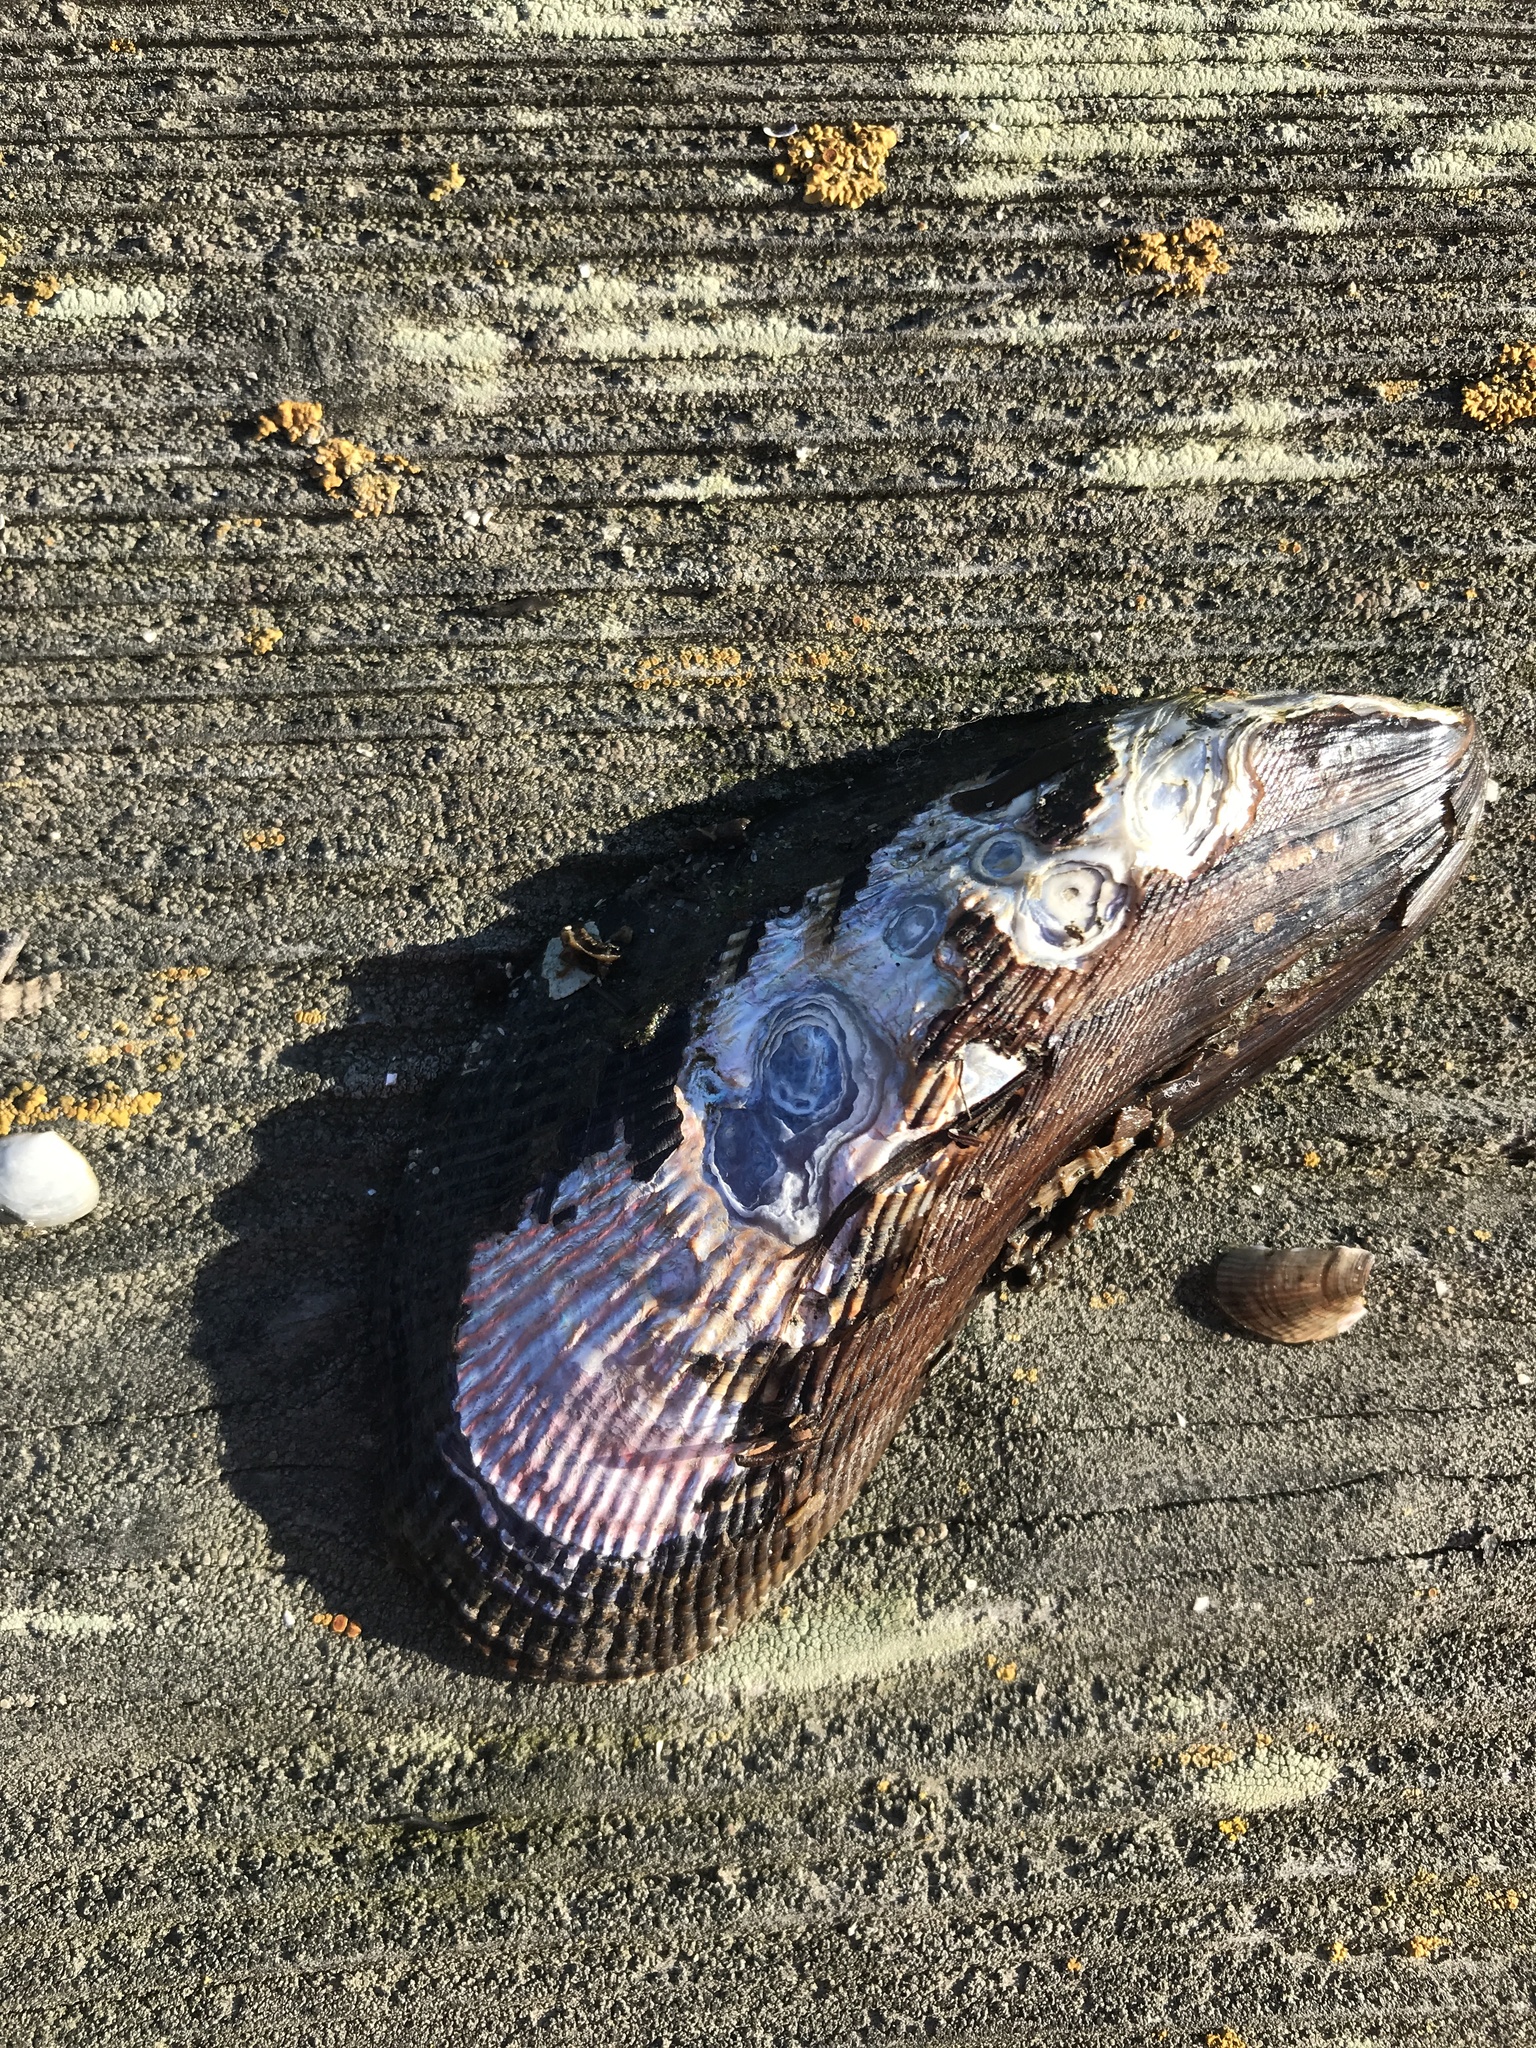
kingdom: Animalia
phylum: Mollusca
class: Bivalvia
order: Mytilida
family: Mytilidae
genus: Geukensia
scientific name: Geukensia demissa
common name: Ribbed mussel
